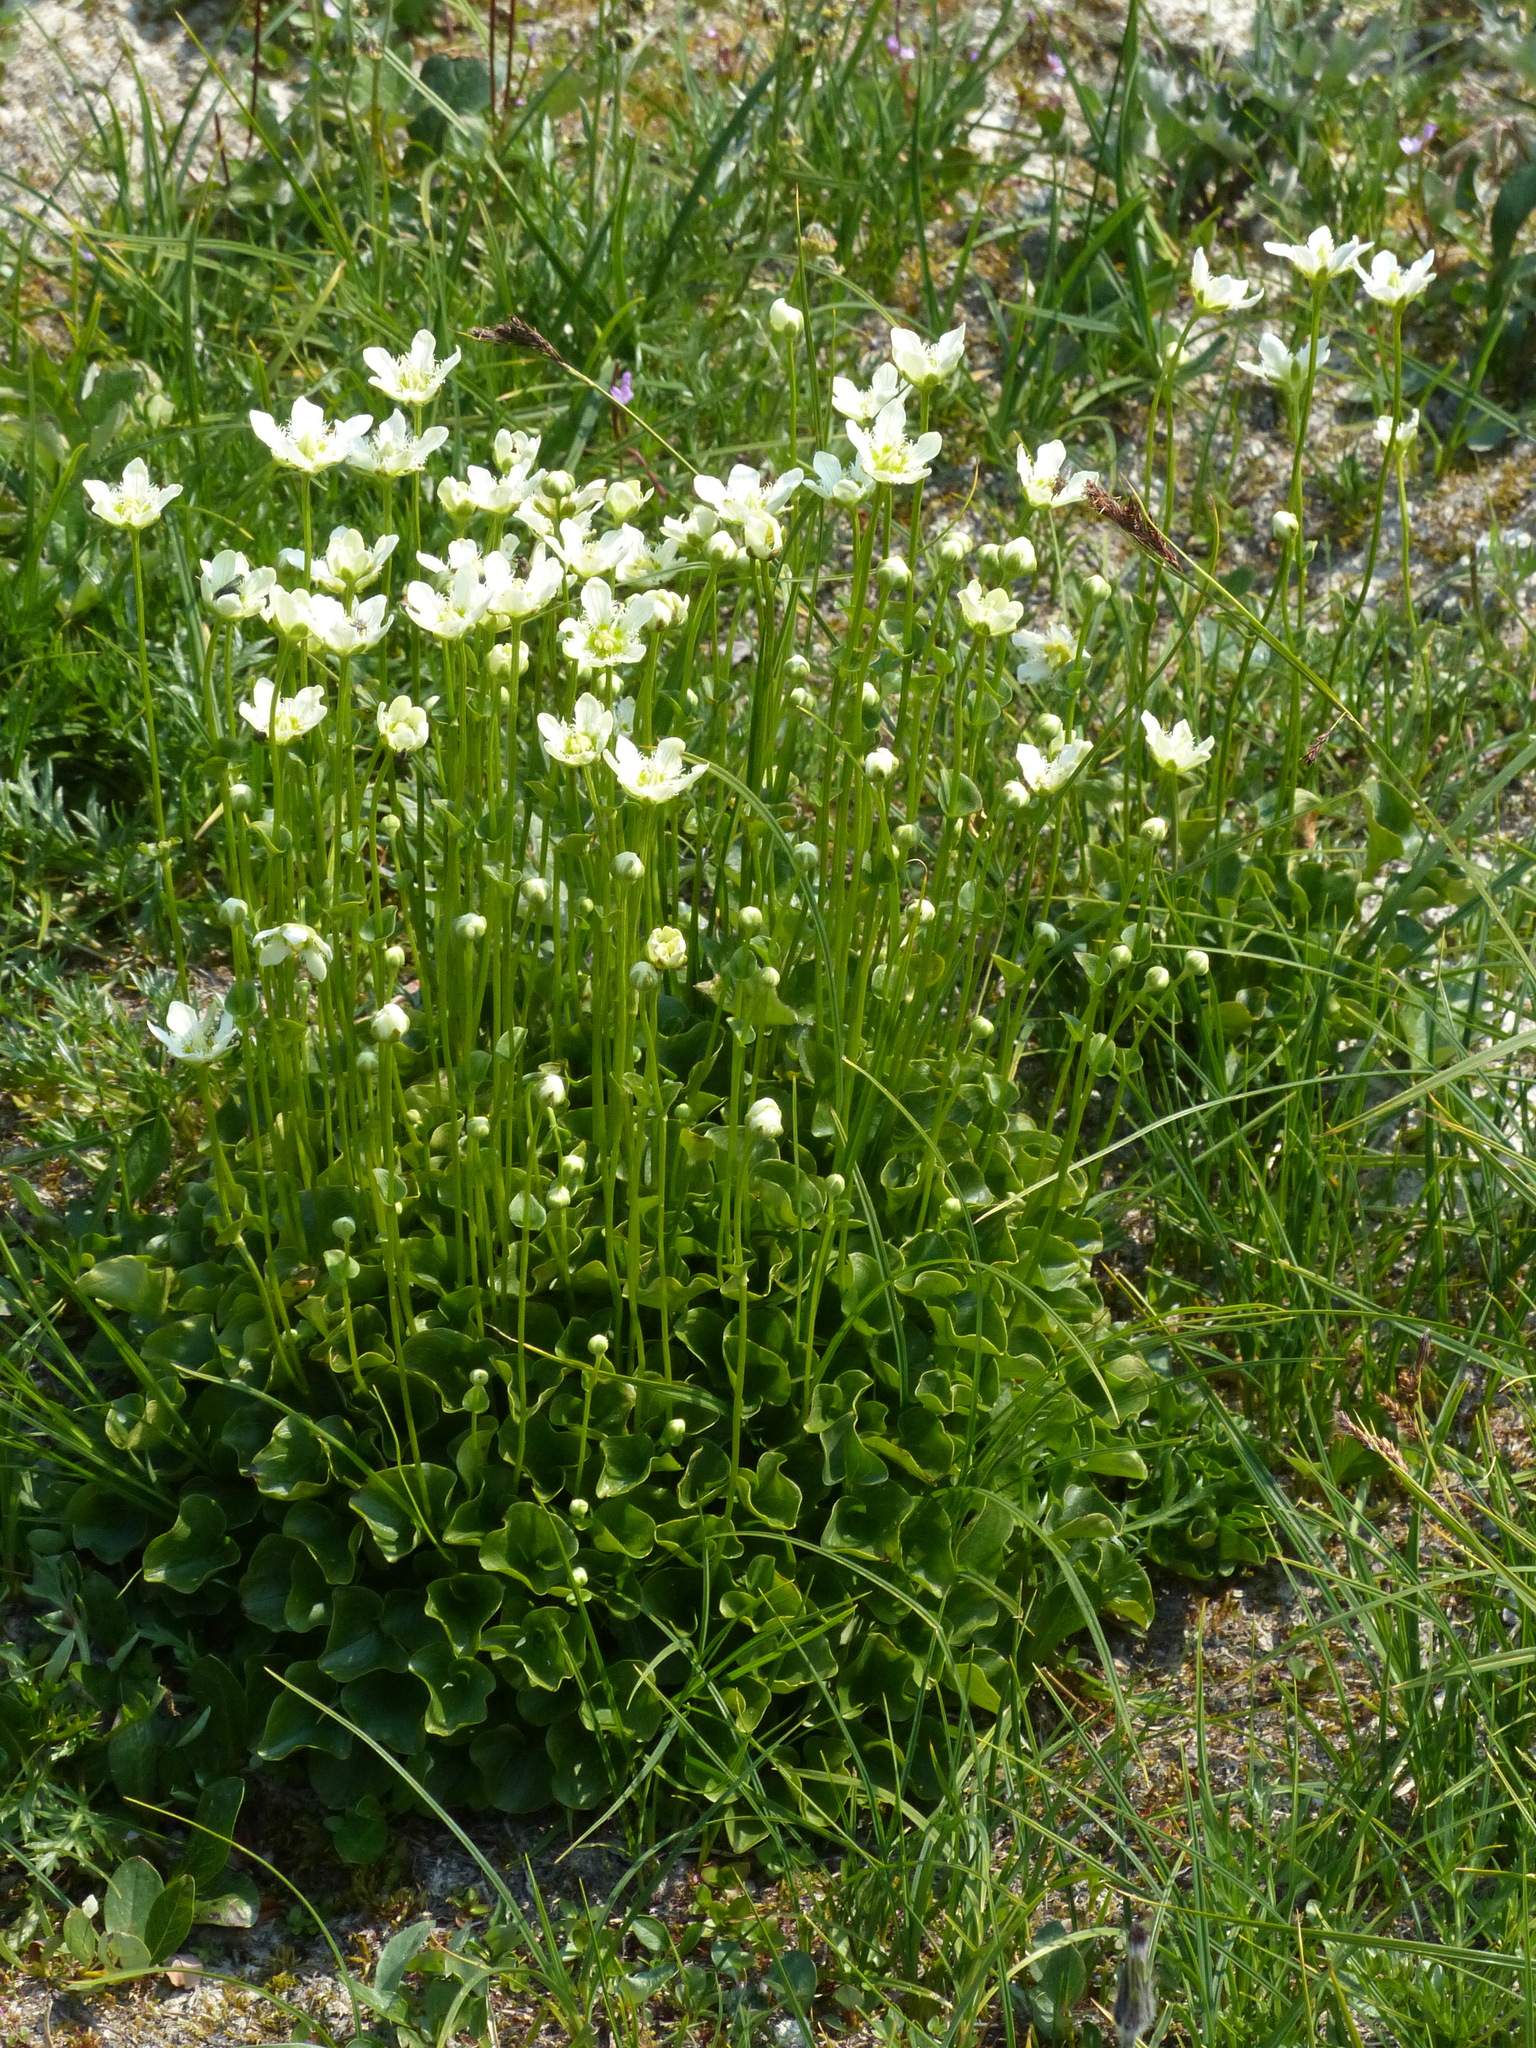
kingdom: Plantae
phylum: Tracheophyta
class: Magnoliopsida
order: Celastrales
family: Parnassiaceae
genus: Parnassia
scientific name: Parnassia fimbriata
